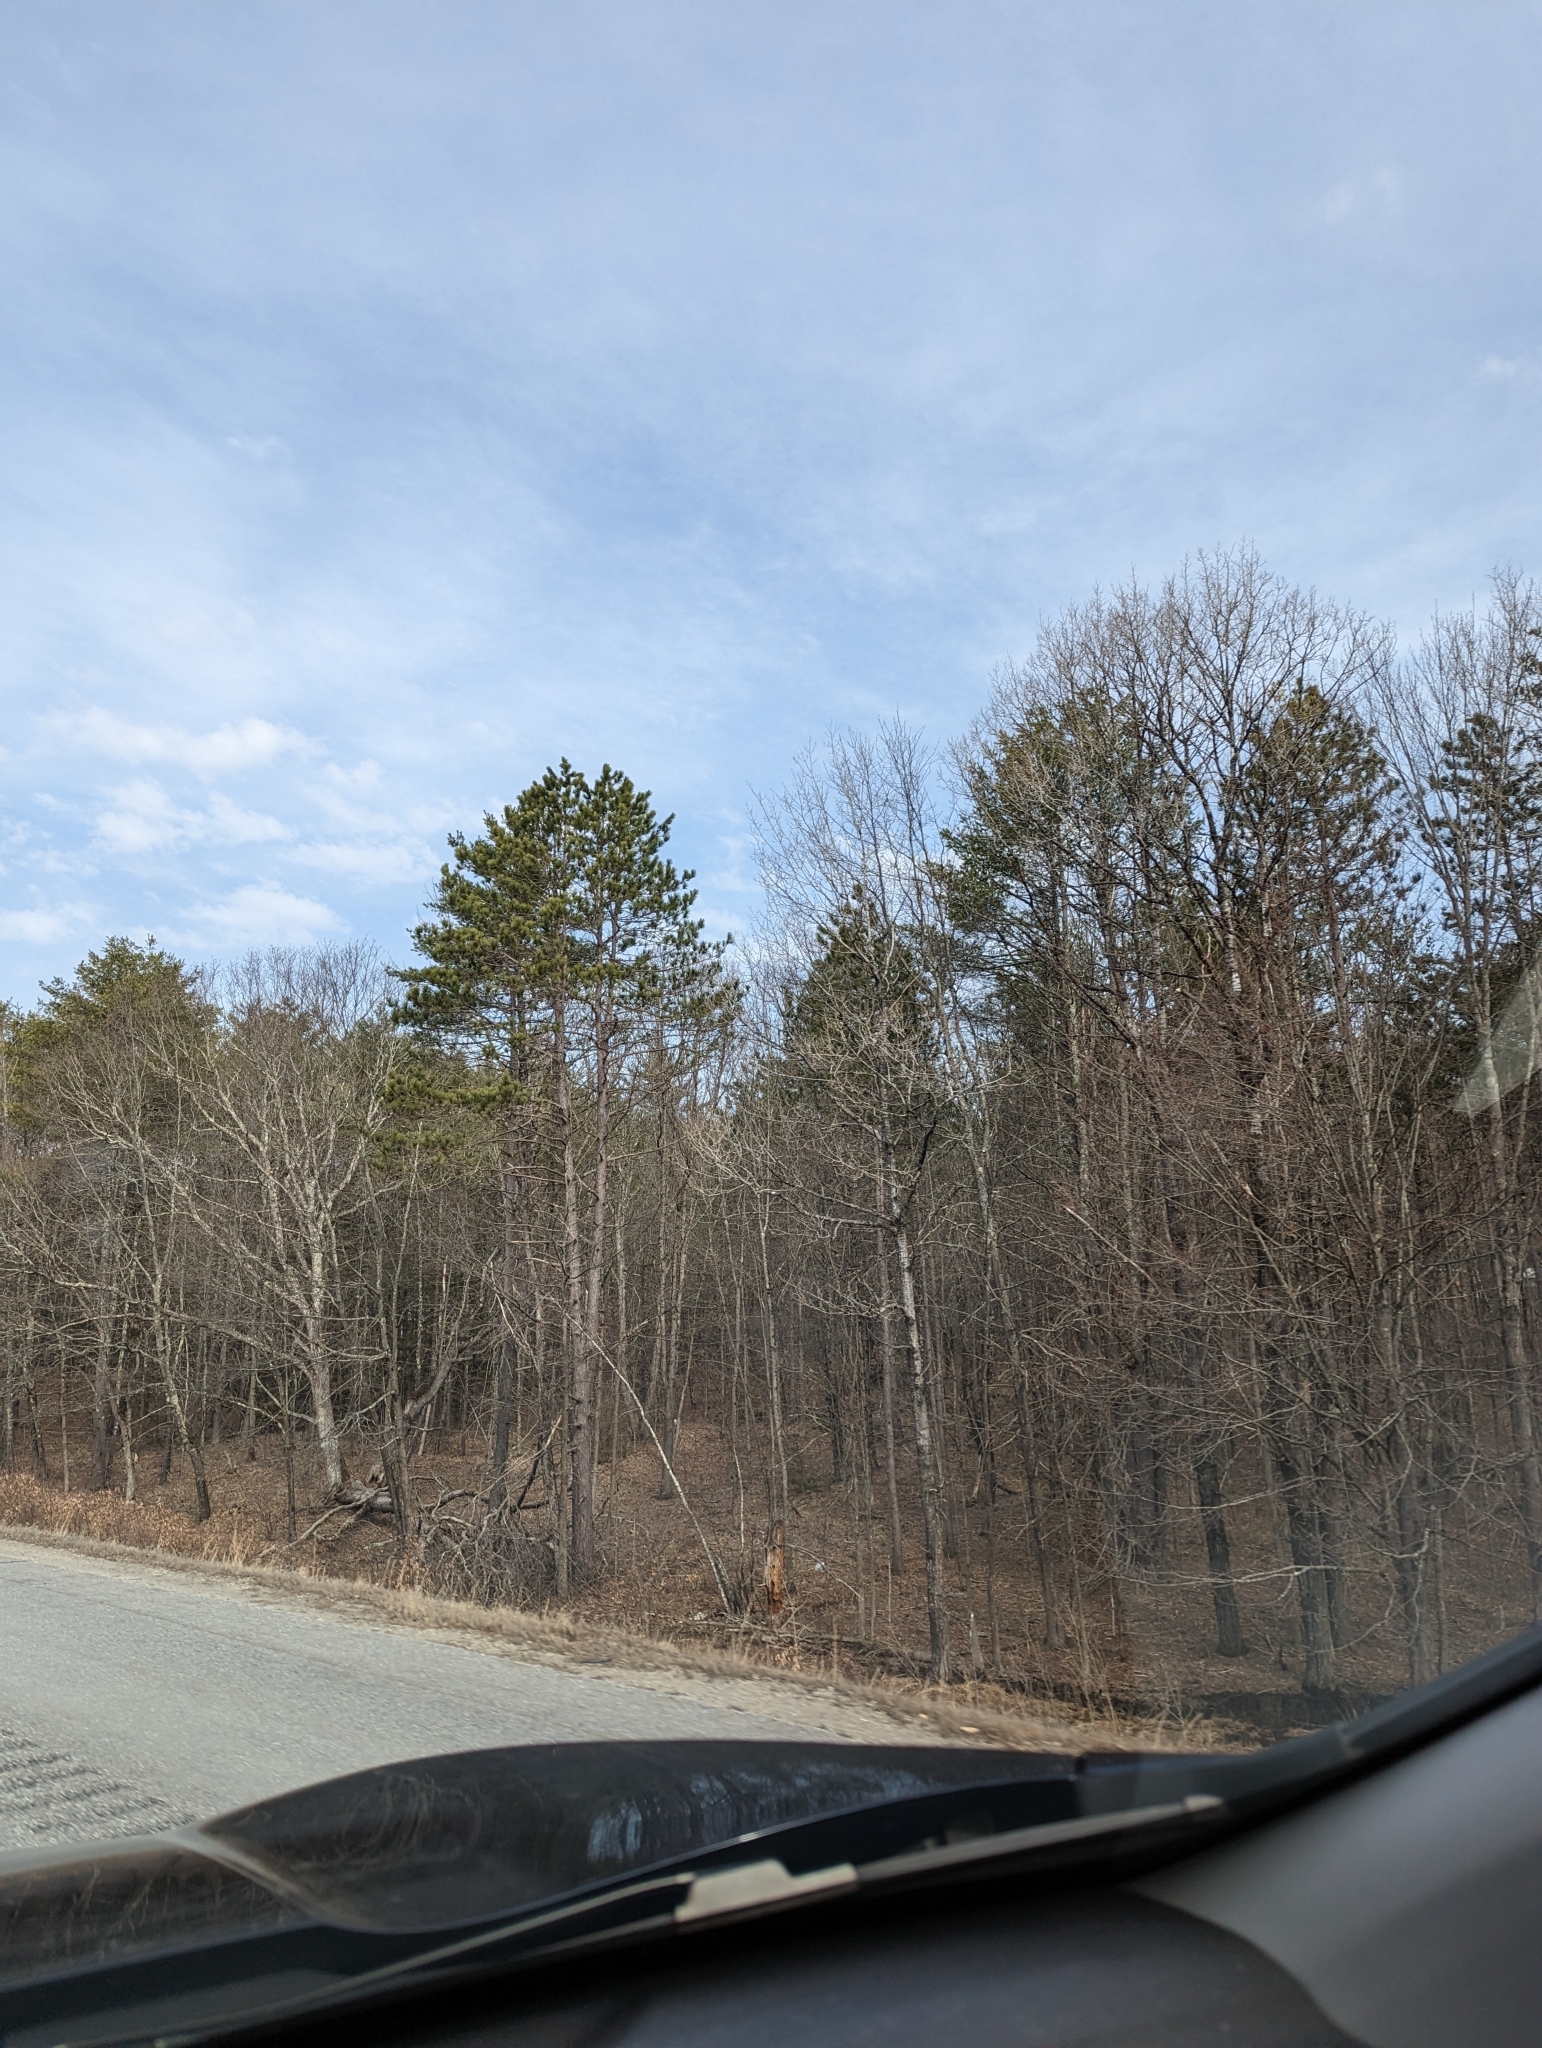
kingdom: Plantae
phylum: Tracheophyta
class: Pinopsida
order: Pinales
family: Pinaceae
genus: Pinus
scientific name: Pinus resinosa
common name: Norway pine
